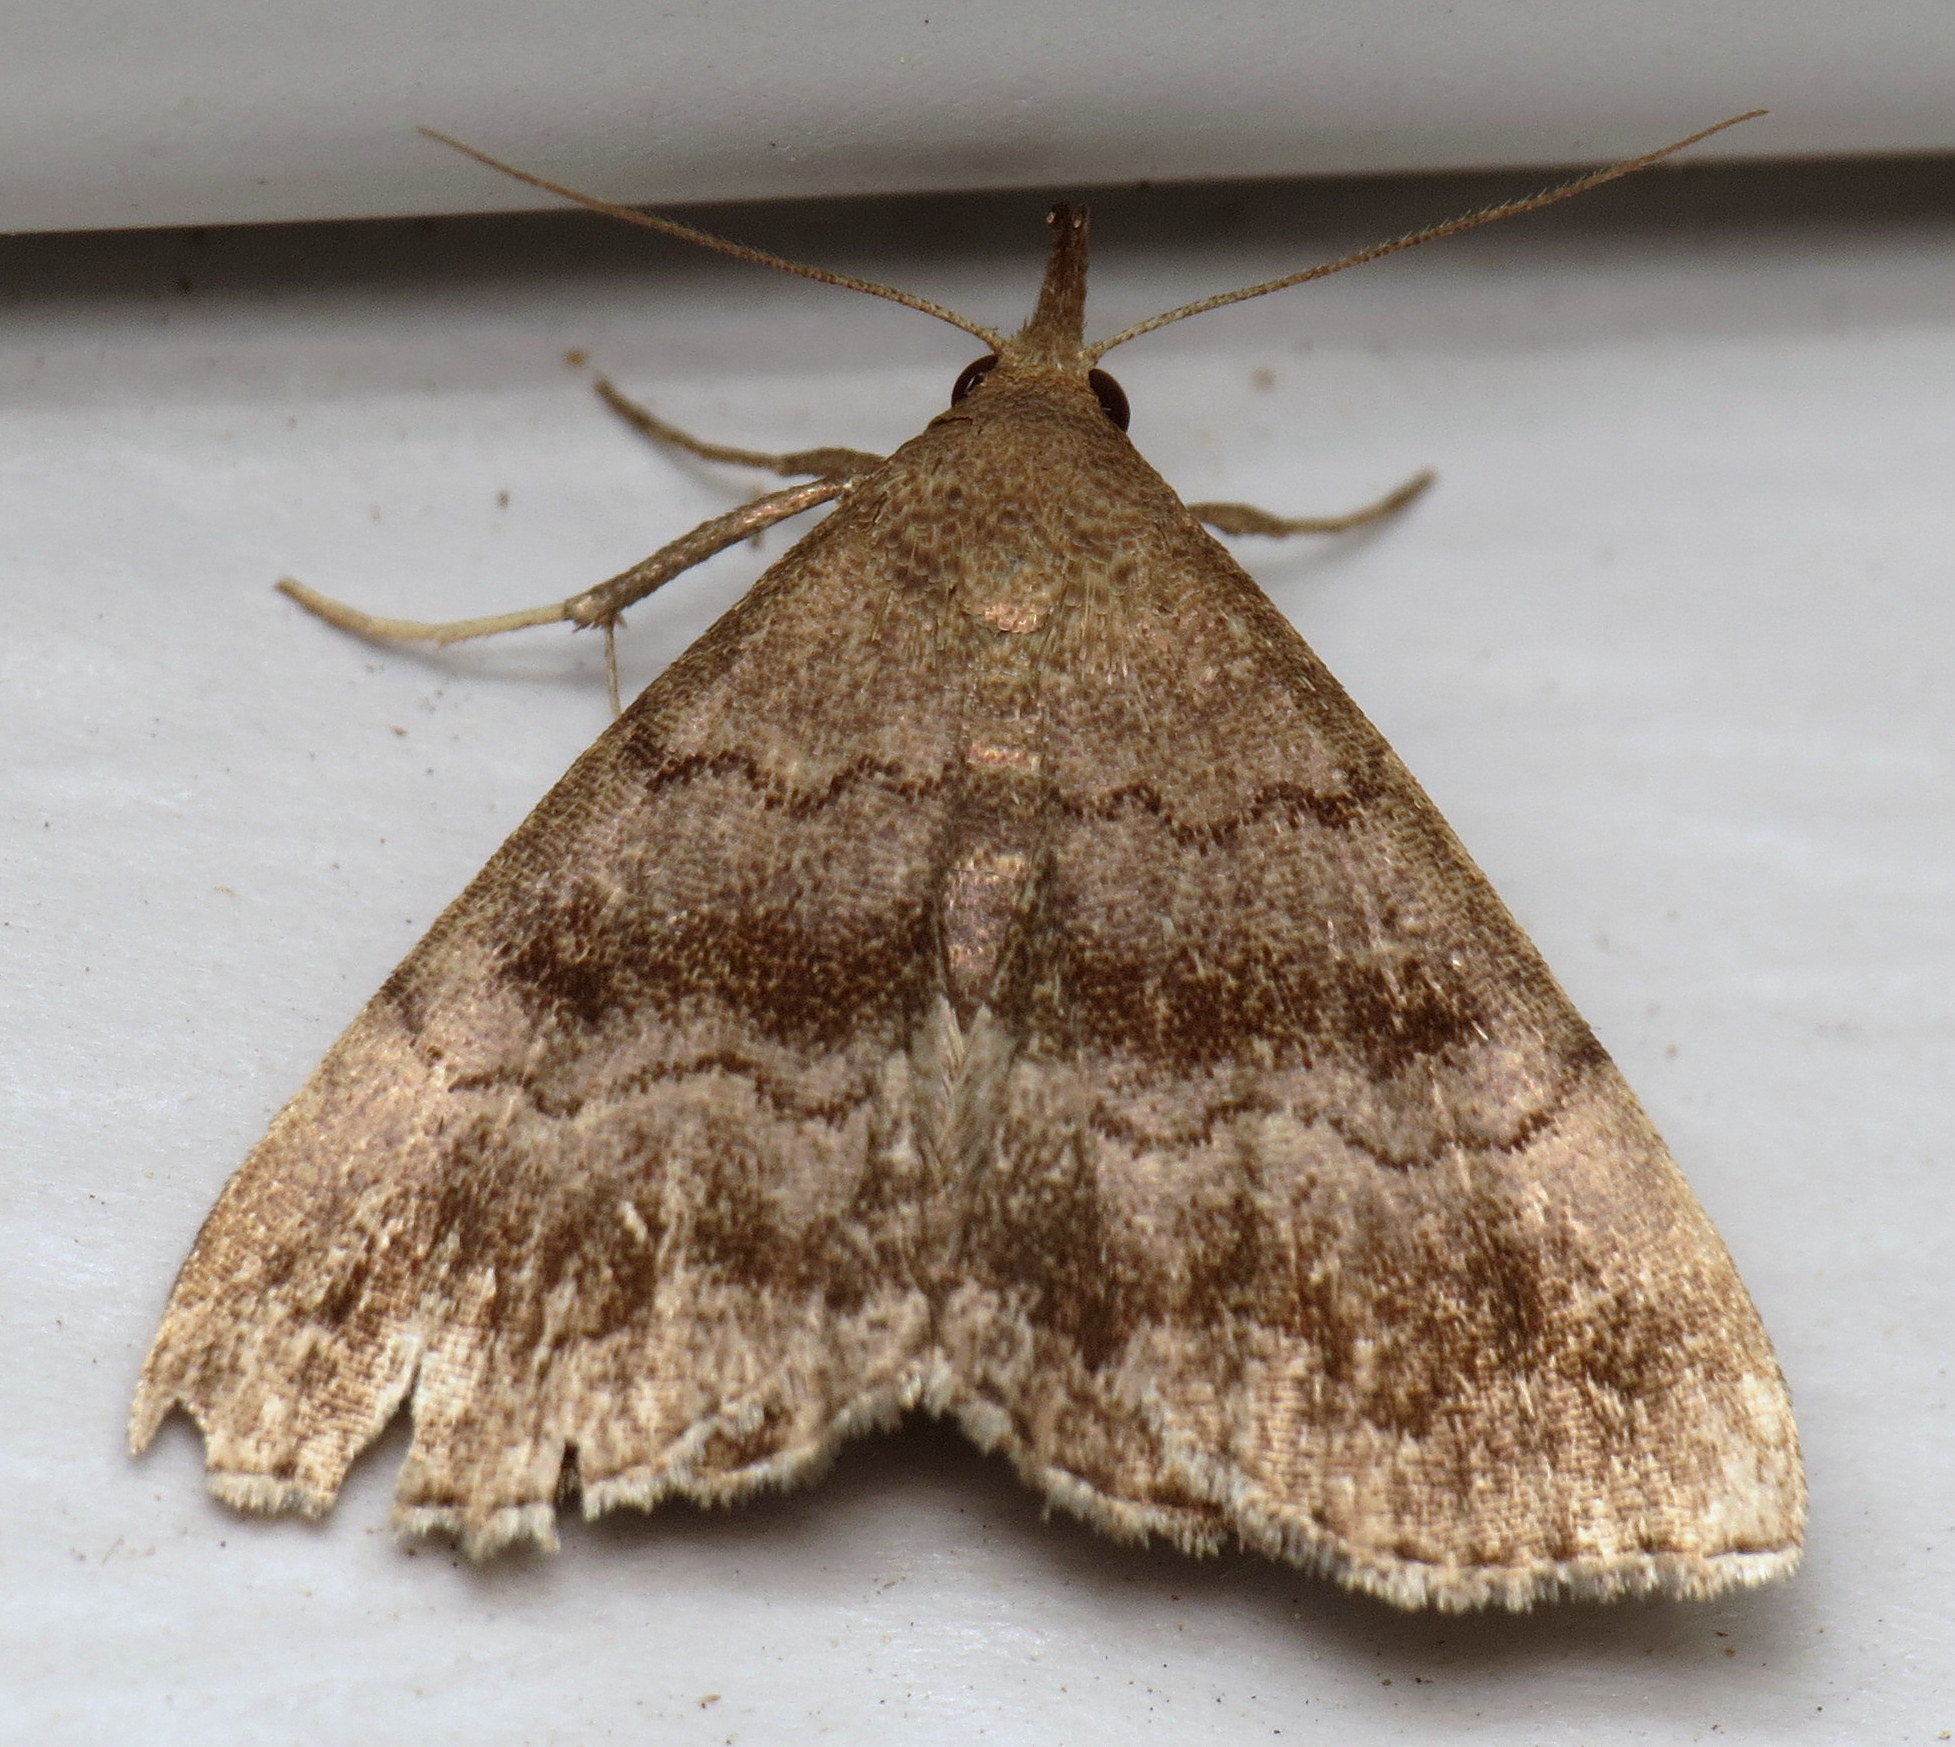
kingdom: Animalia
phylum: Arthropoda
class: Insecta
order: Lepidoptera
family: Erebidae
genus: Phalaenostola
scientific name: Phalaenostola larentioides
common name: Black-banded owlet
